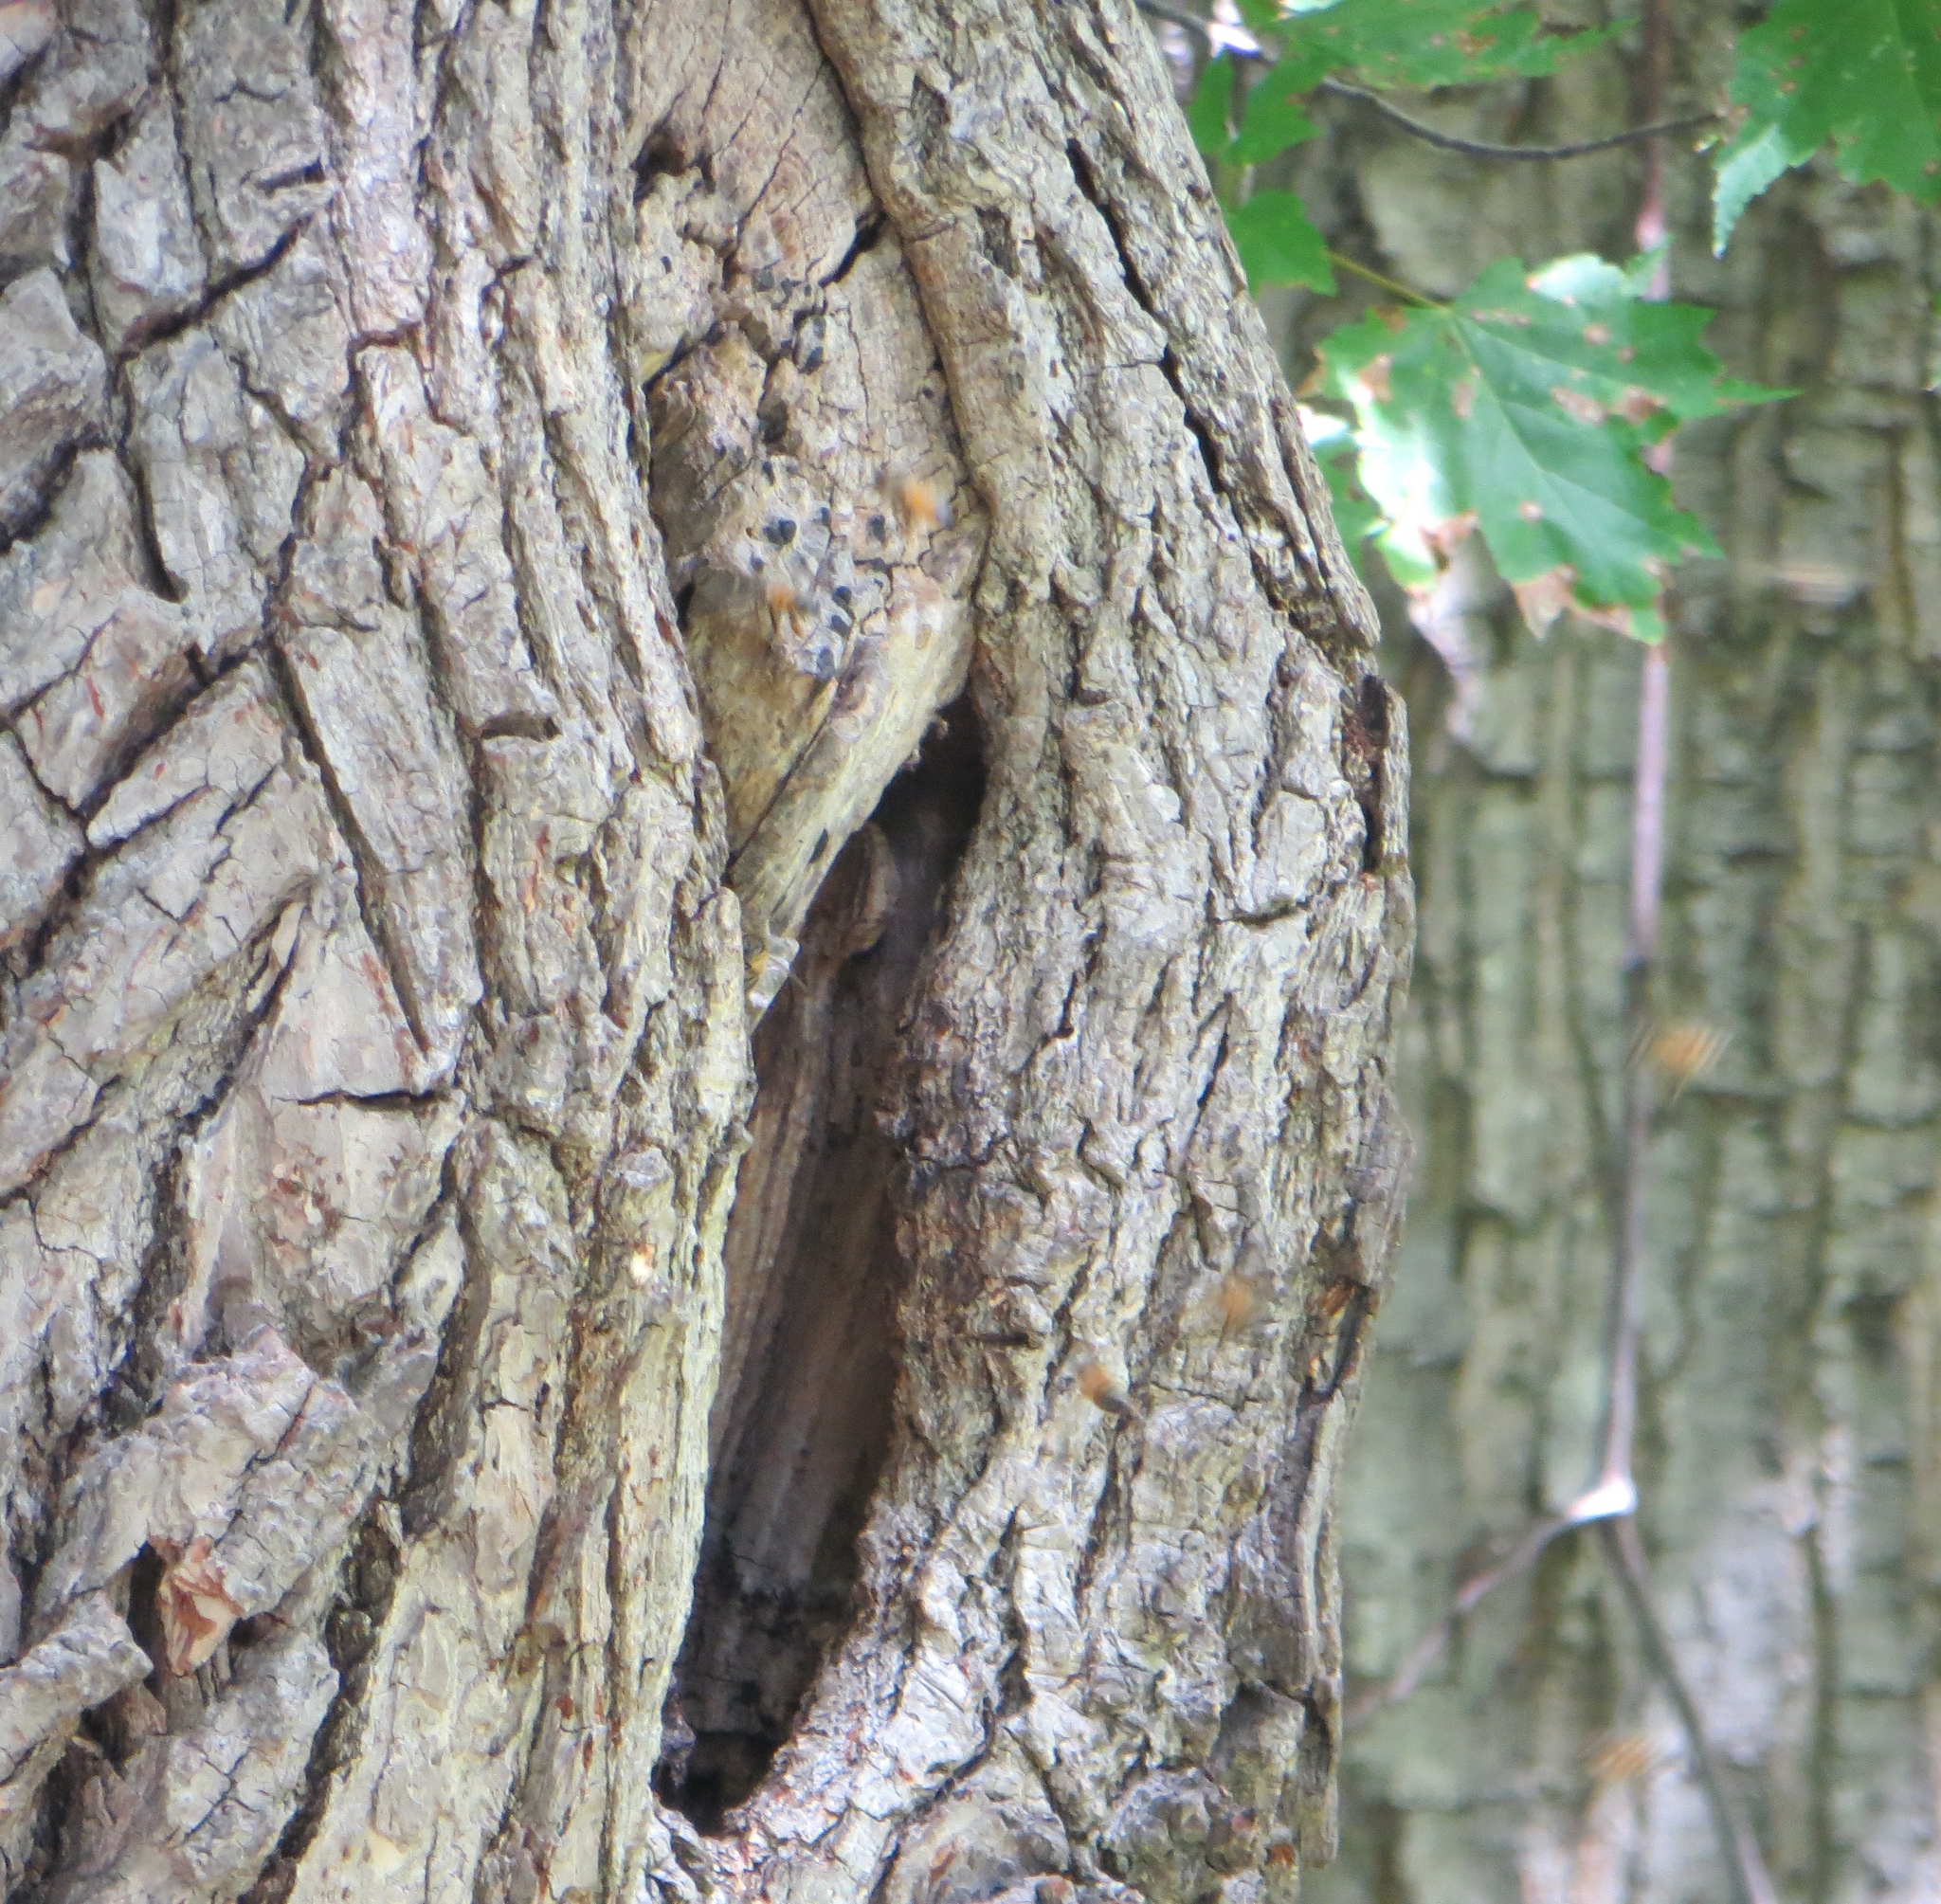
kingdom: Animalia
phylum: Arthropoda
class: Insecta
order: Hymenoptera
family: Apidae
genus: Apis
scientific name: Apis mellifera
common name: Honey bee
